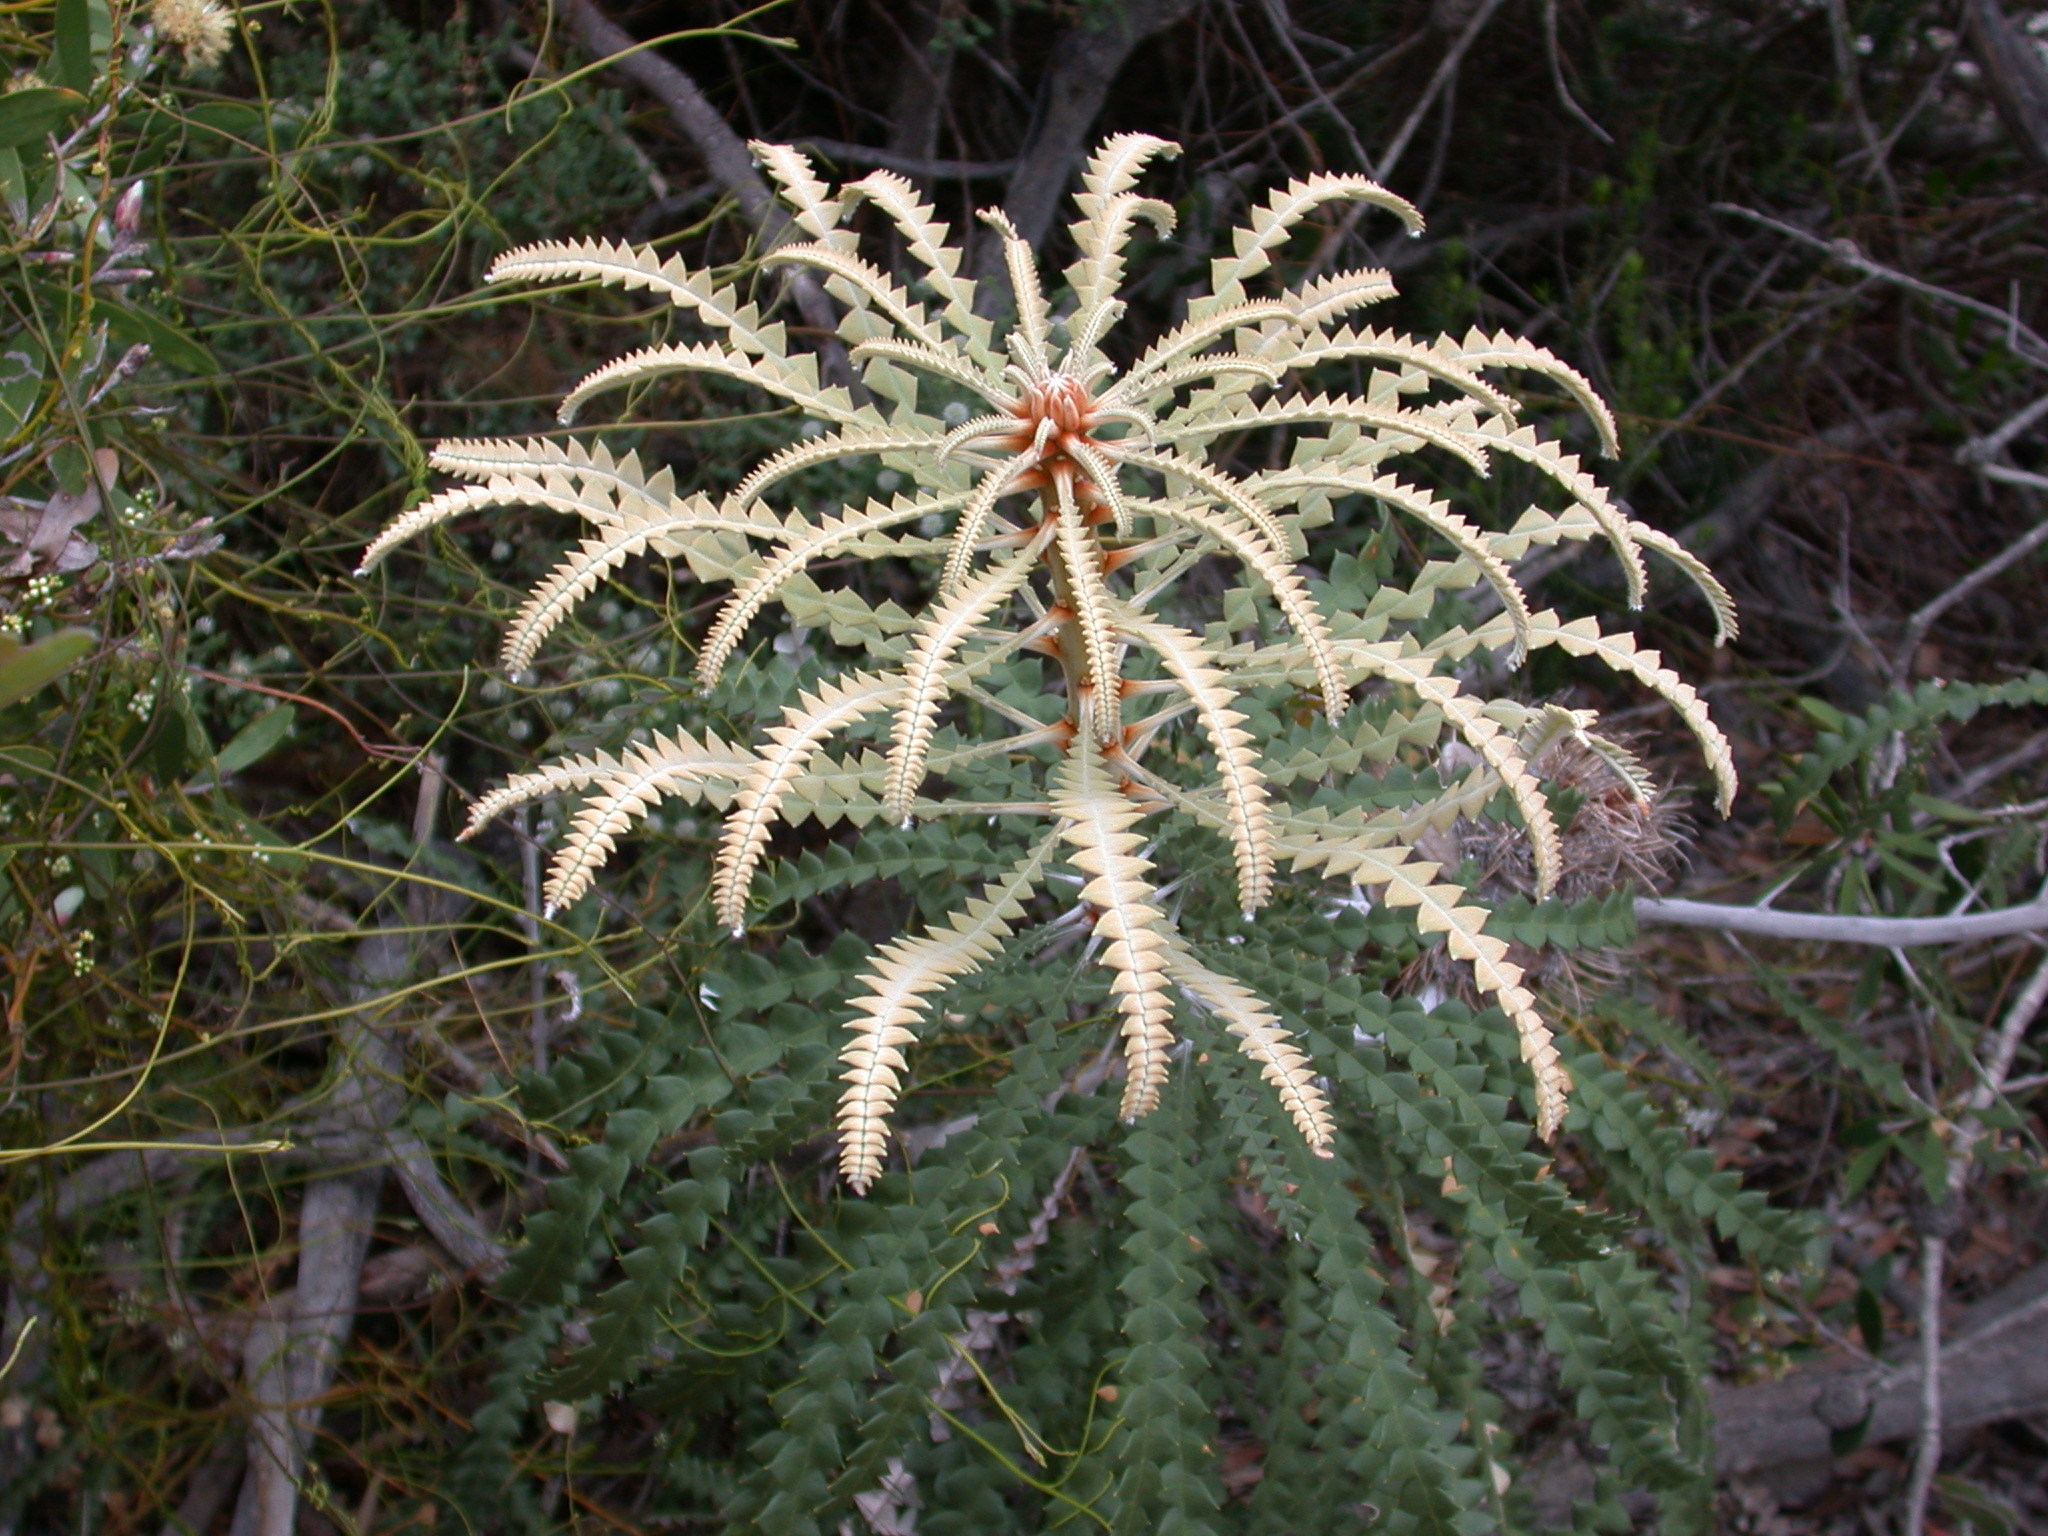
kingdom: Plantae
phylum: Tracheophyta
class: Magnoliopsida
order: Proteales
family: Proteaceae
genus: Banksia
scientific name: Banksia speciosa
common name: Showy banksia
